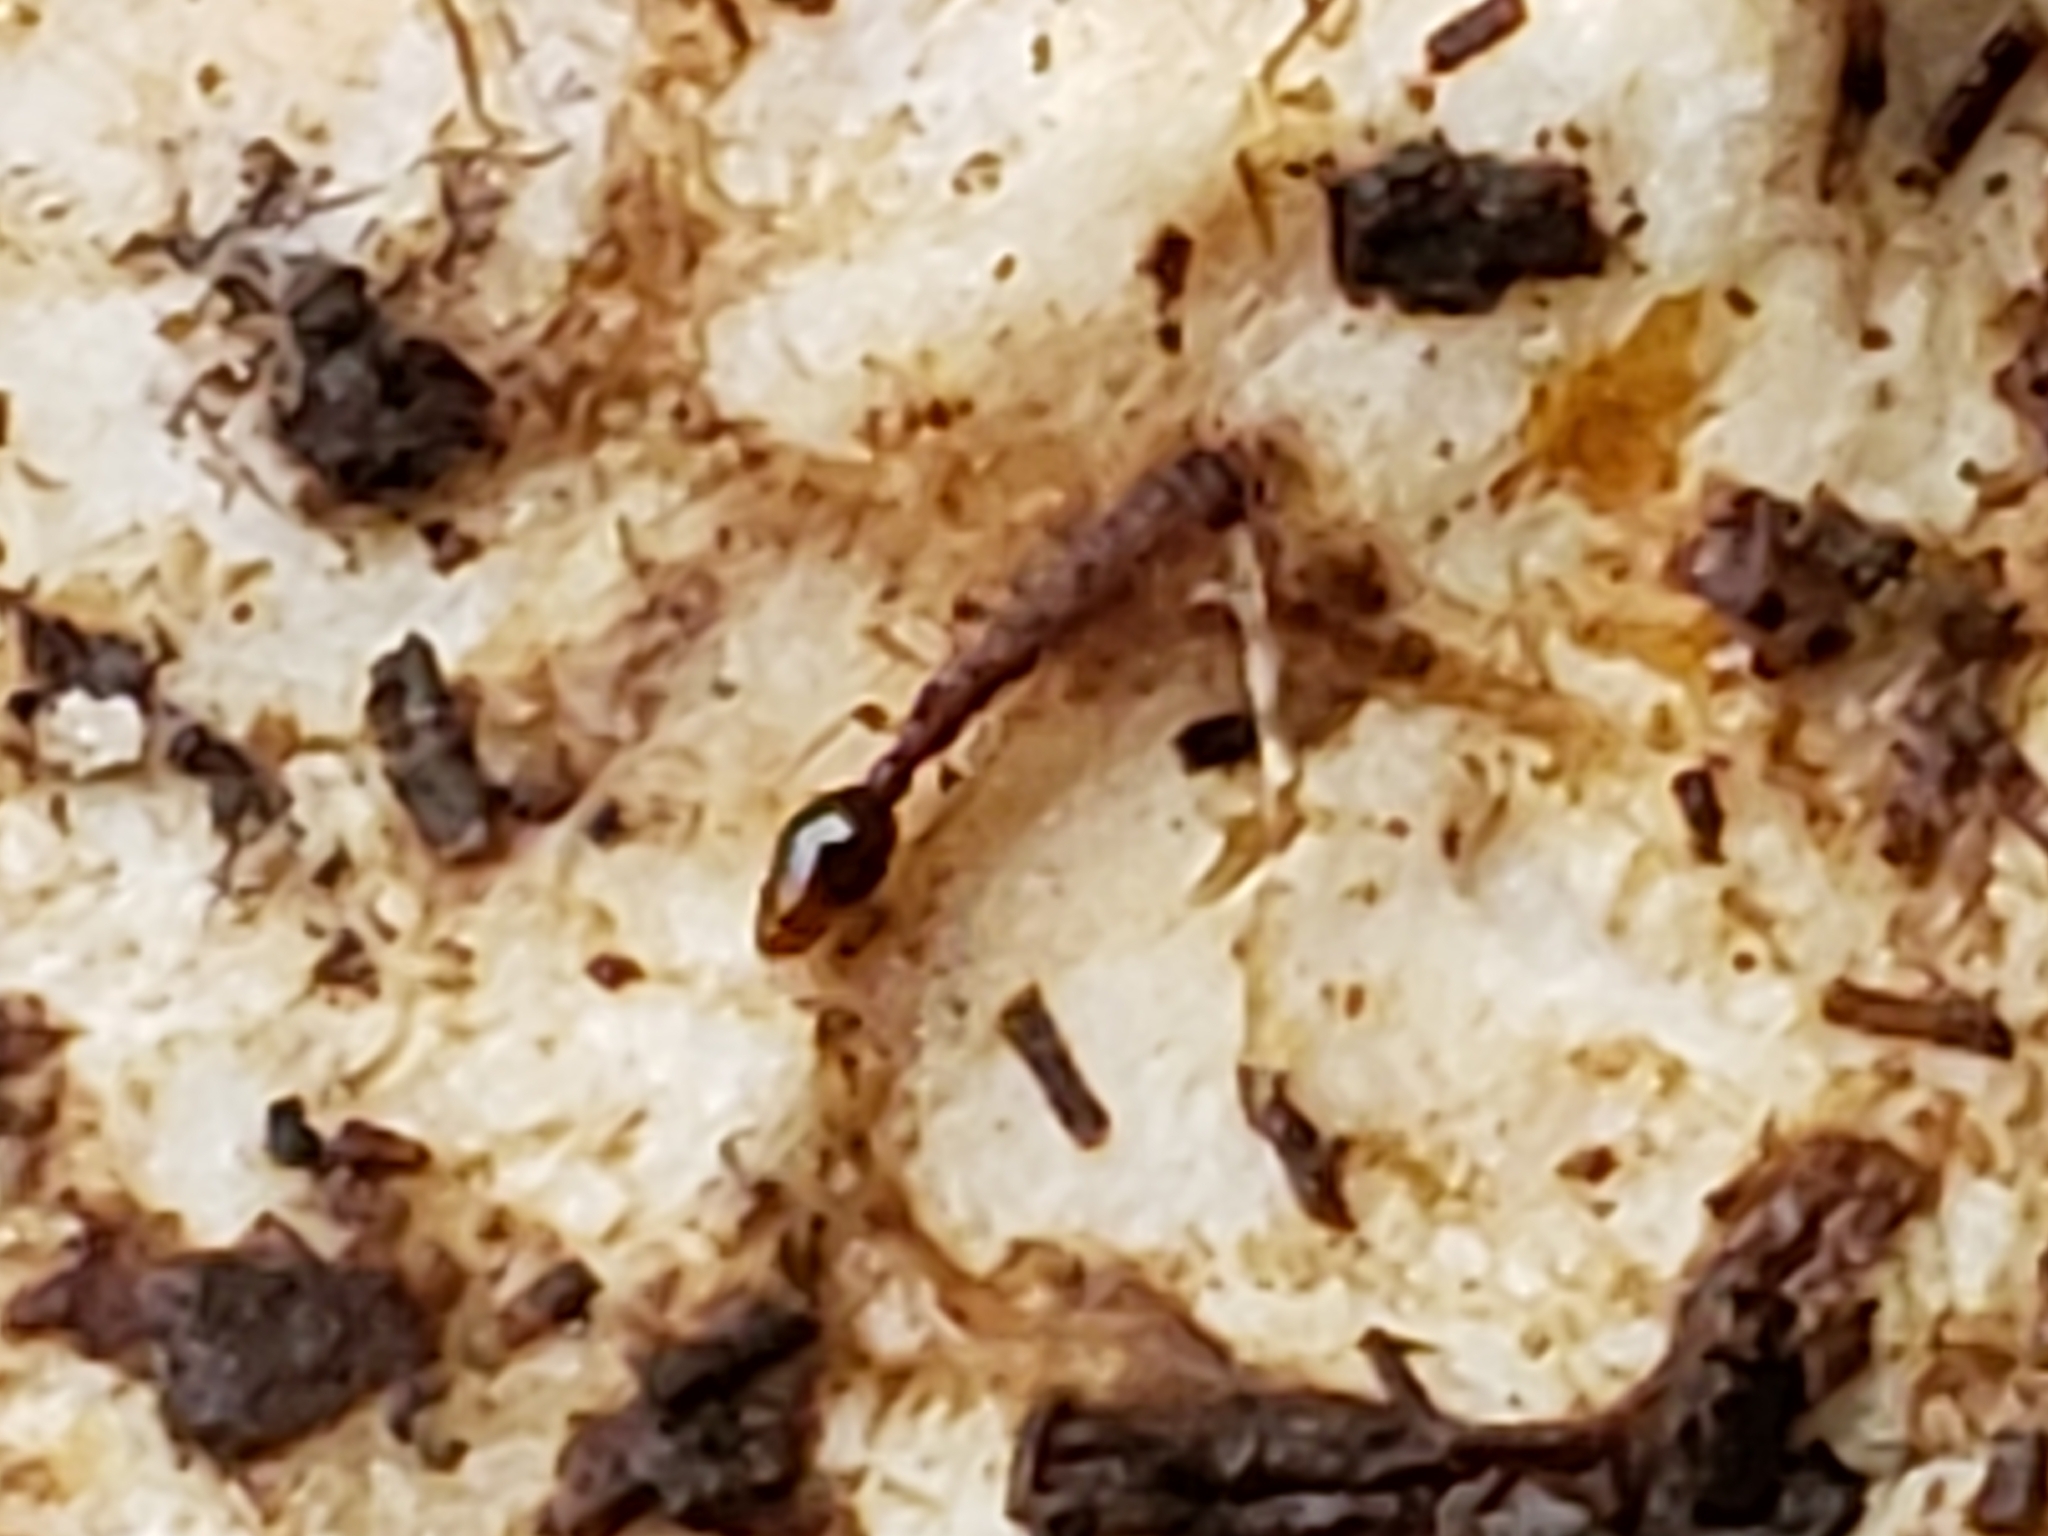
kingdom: Animalia
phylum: Arthropoda
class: Insecta
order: Hymenoptera
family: Formicidae
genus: Vollenhovia
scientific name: Vollenhovia emeryi
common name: Ant
